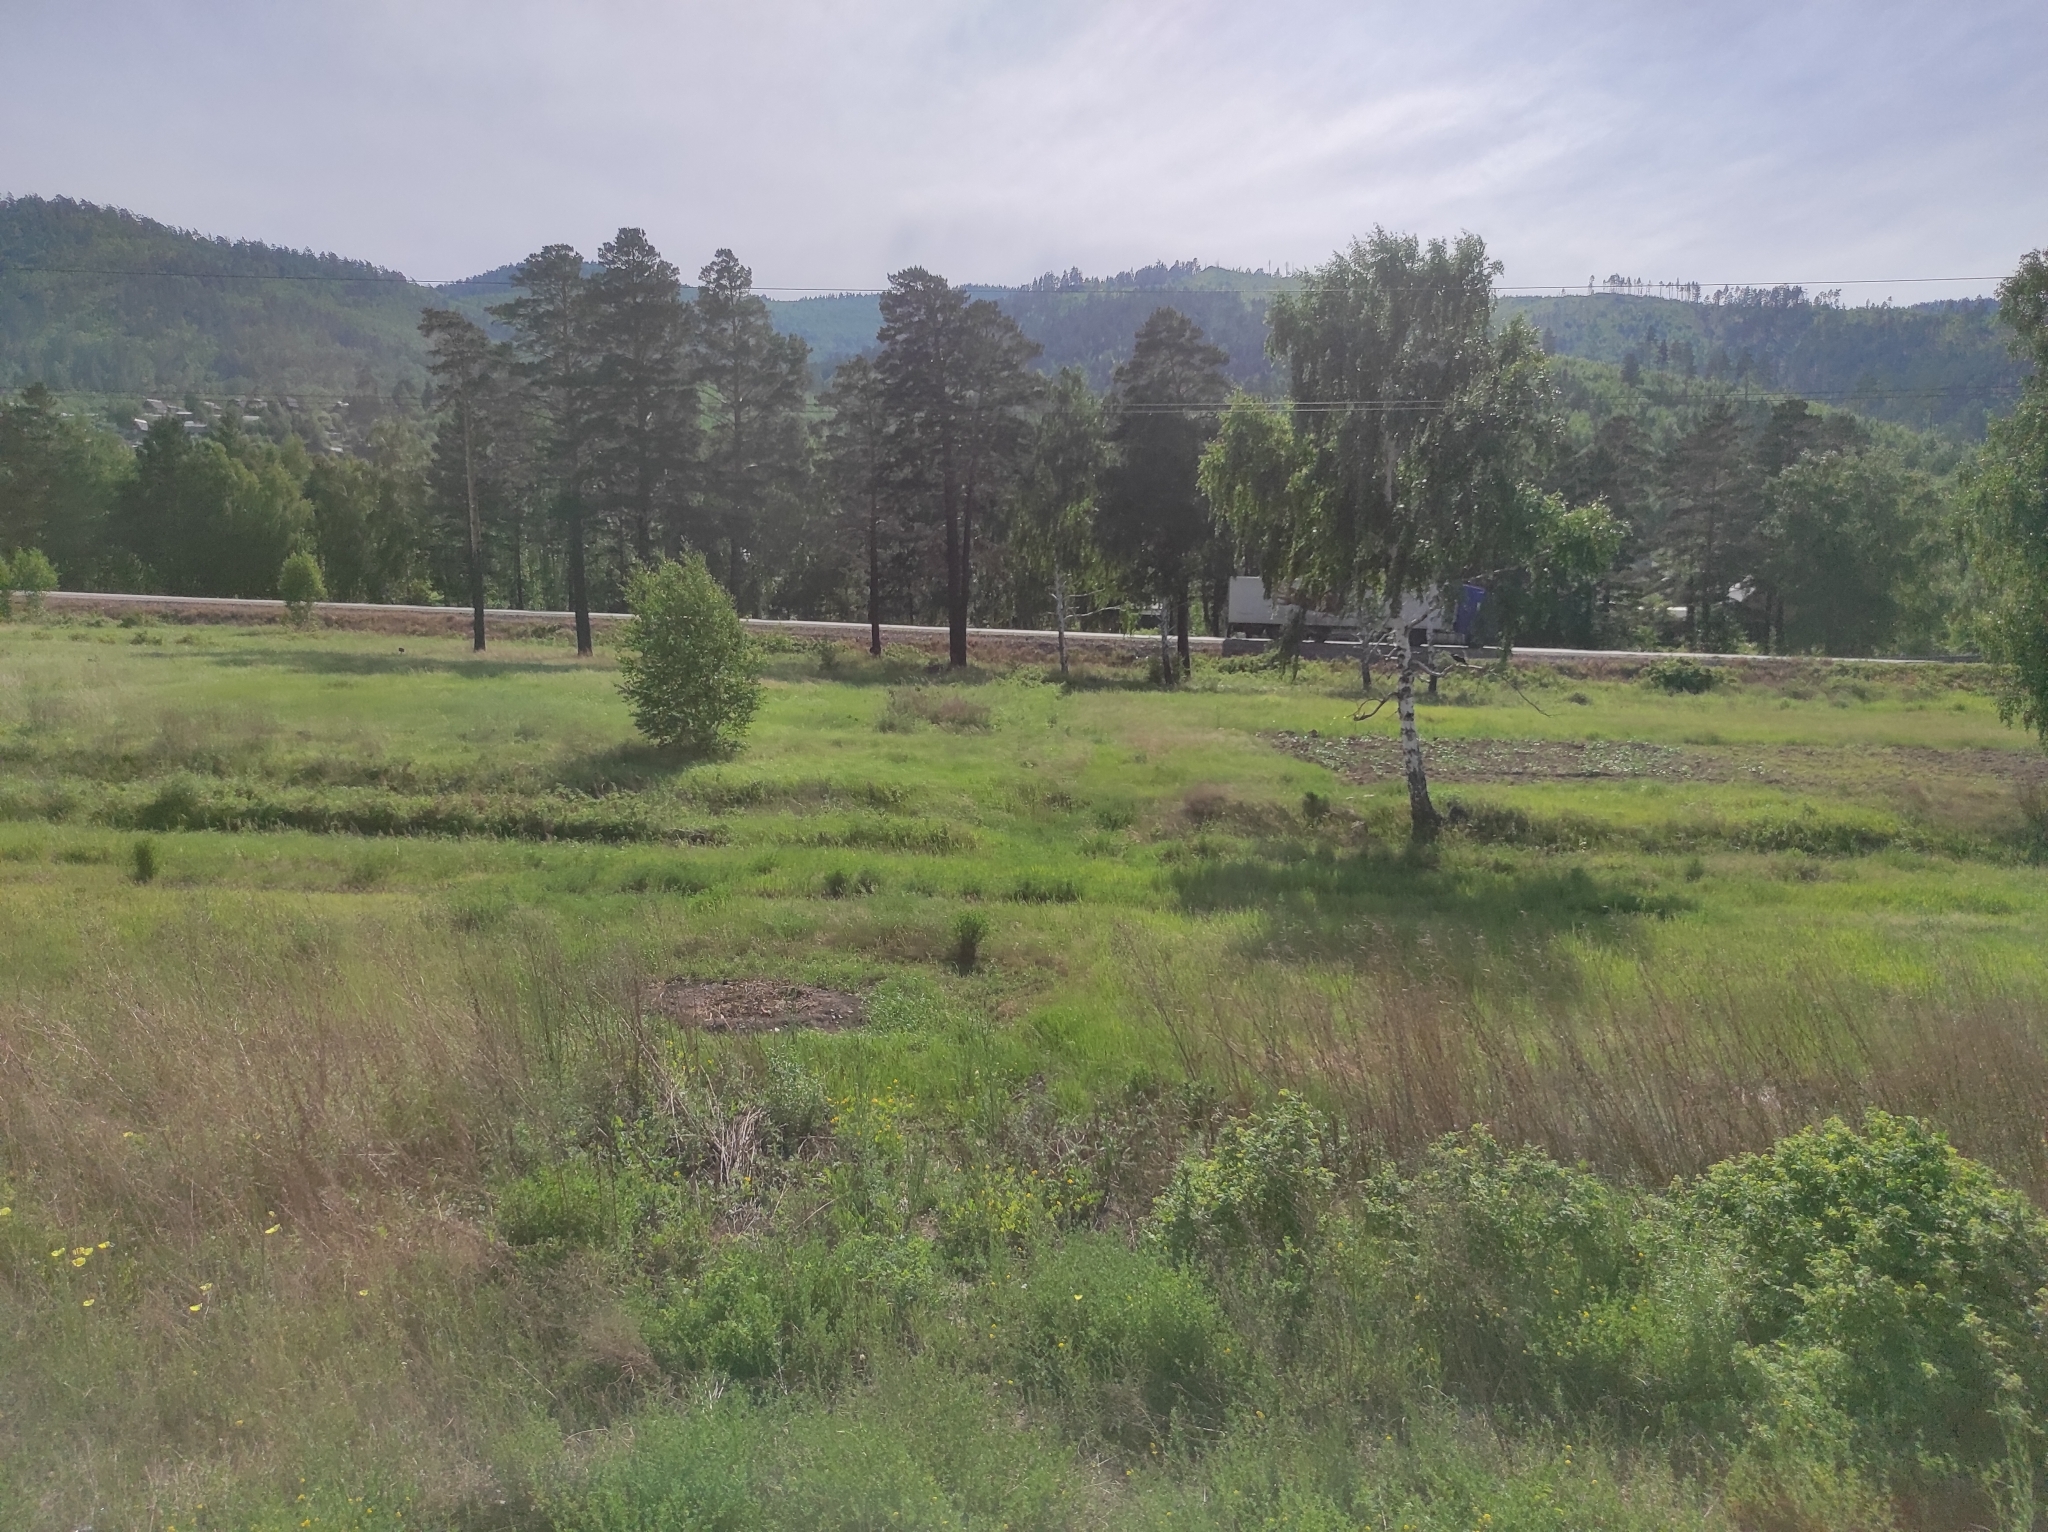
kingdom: Plantae
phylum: Tracheophyta
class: Pinopsida
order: Pinales
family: Pinaceae
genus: Pinus
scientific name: Pinus sylvestris
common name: Scots pine
